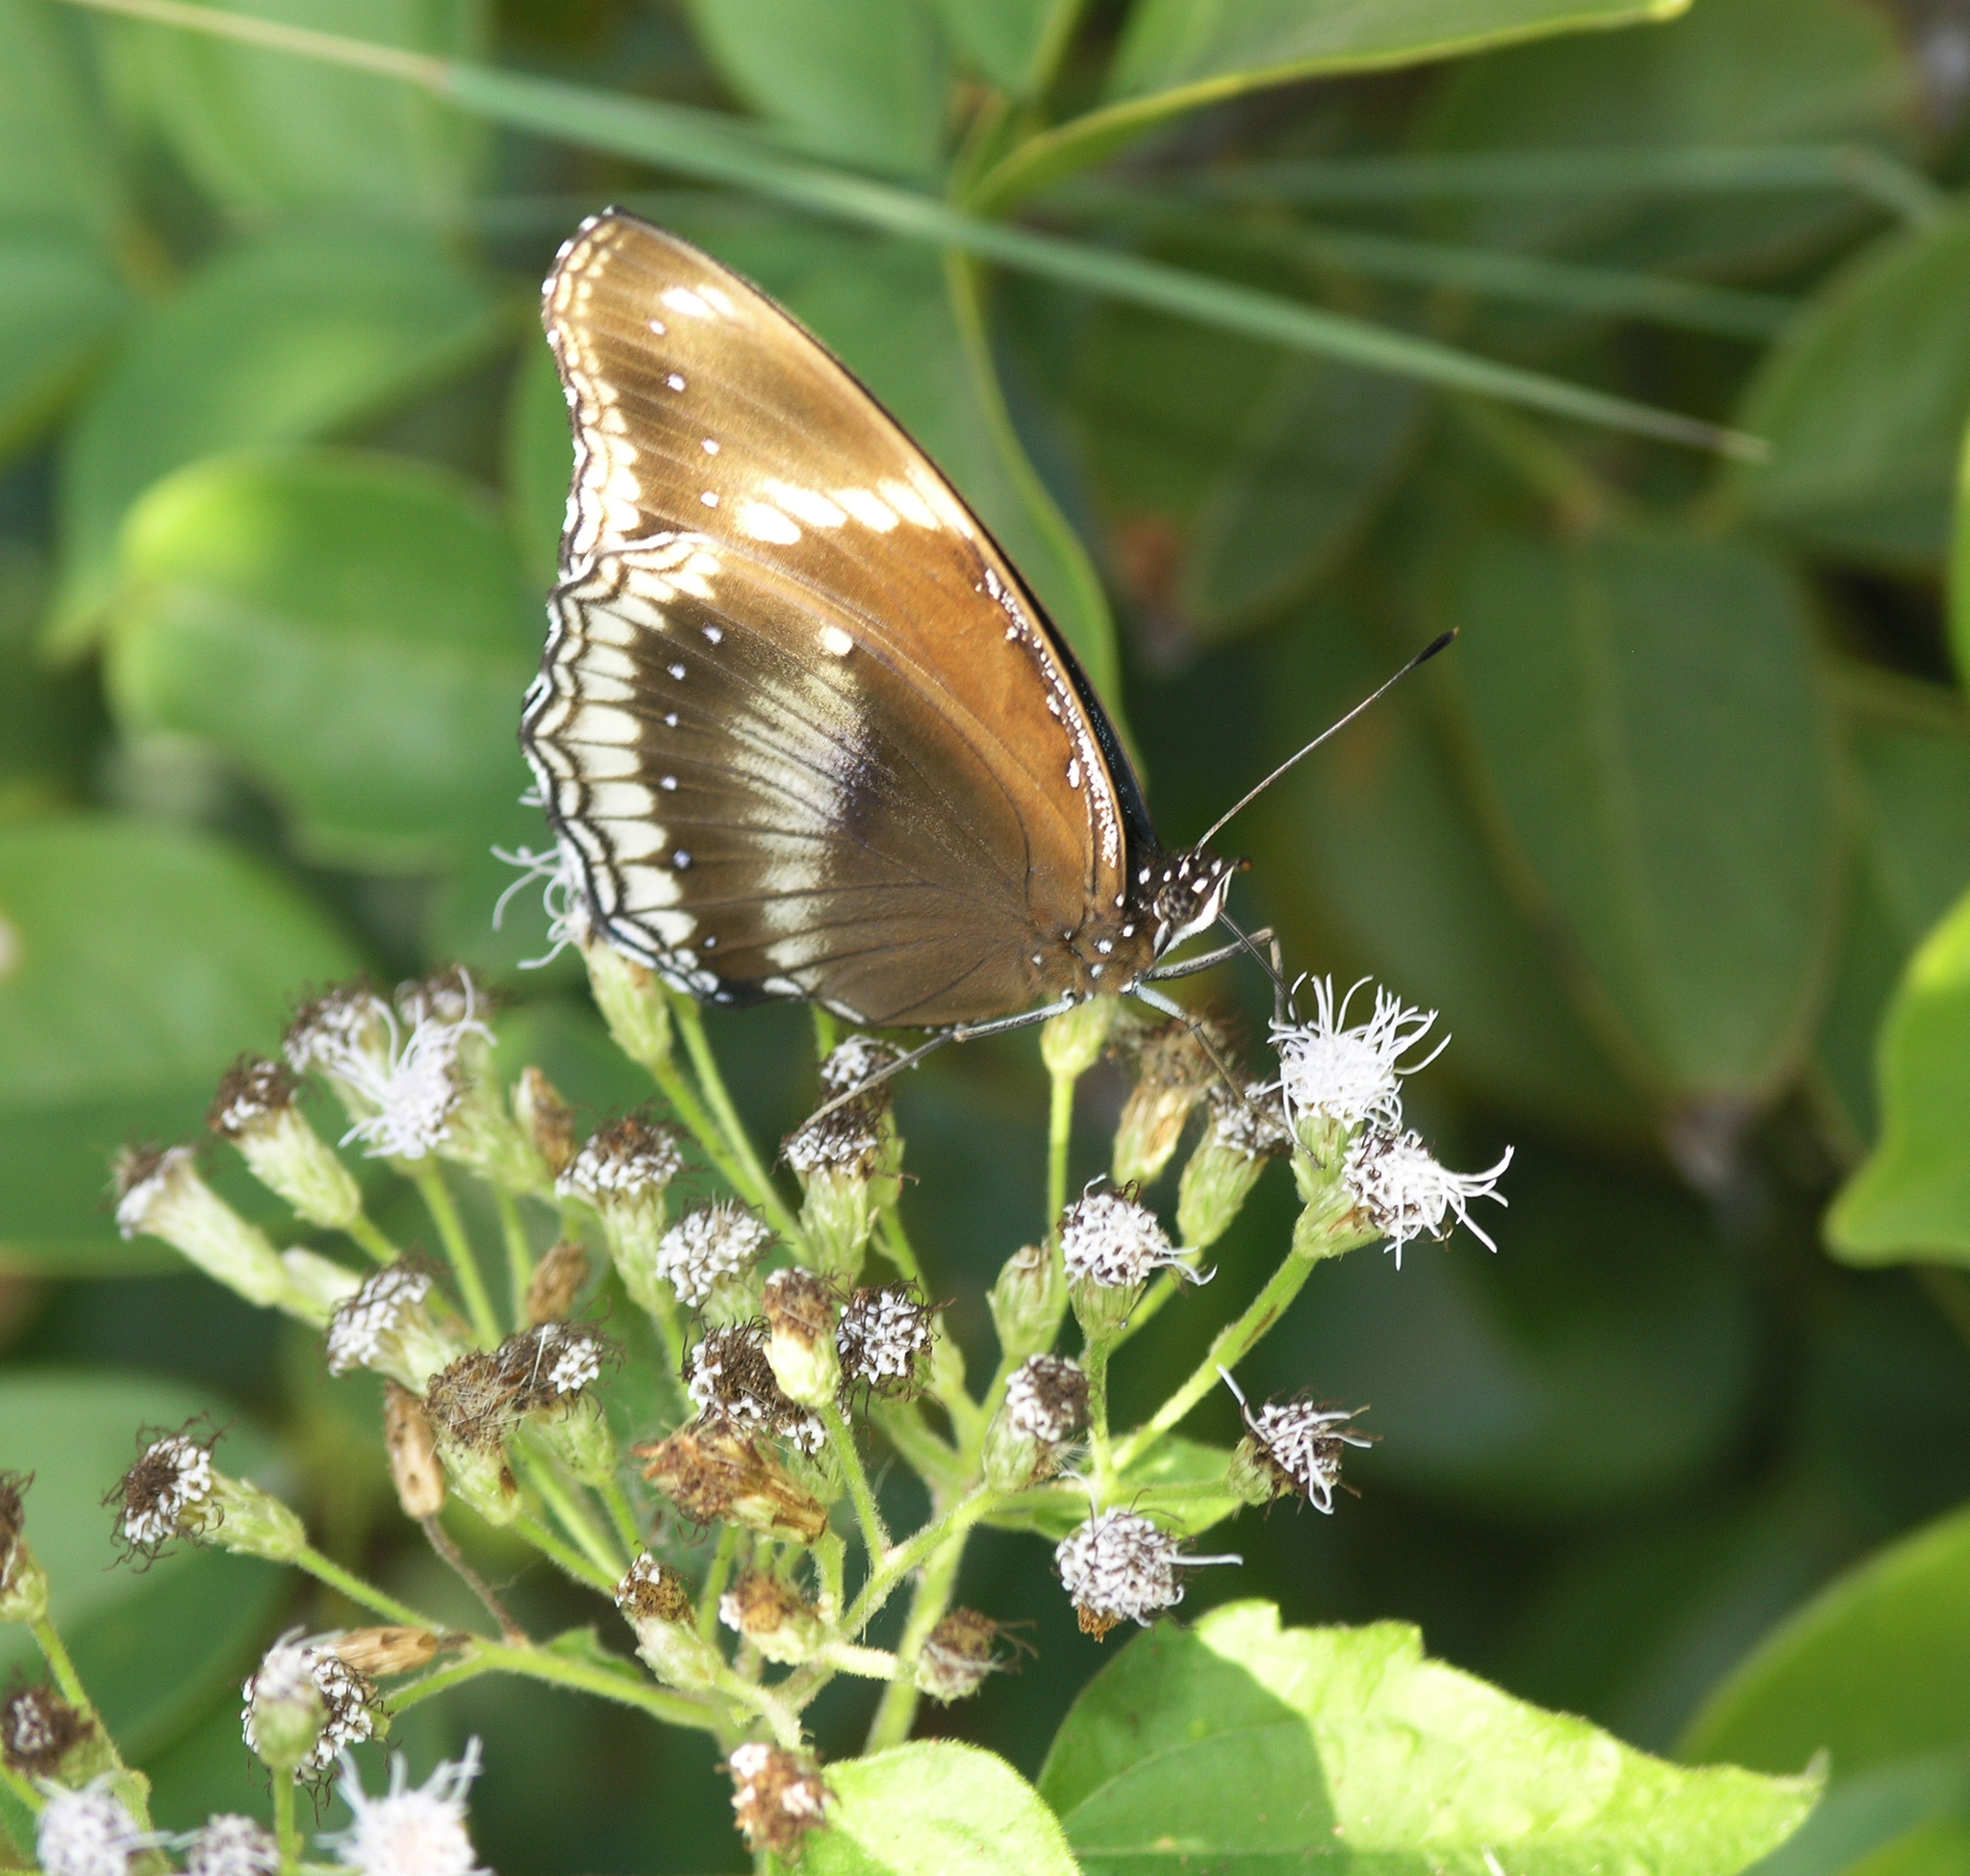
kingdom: Animalia
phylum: Arthropoda
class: Insecta
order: Lepidoptera
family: Nymphalidae
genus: Hypolimnas
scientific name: Hypolimnas bolina
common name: Great eggfly
